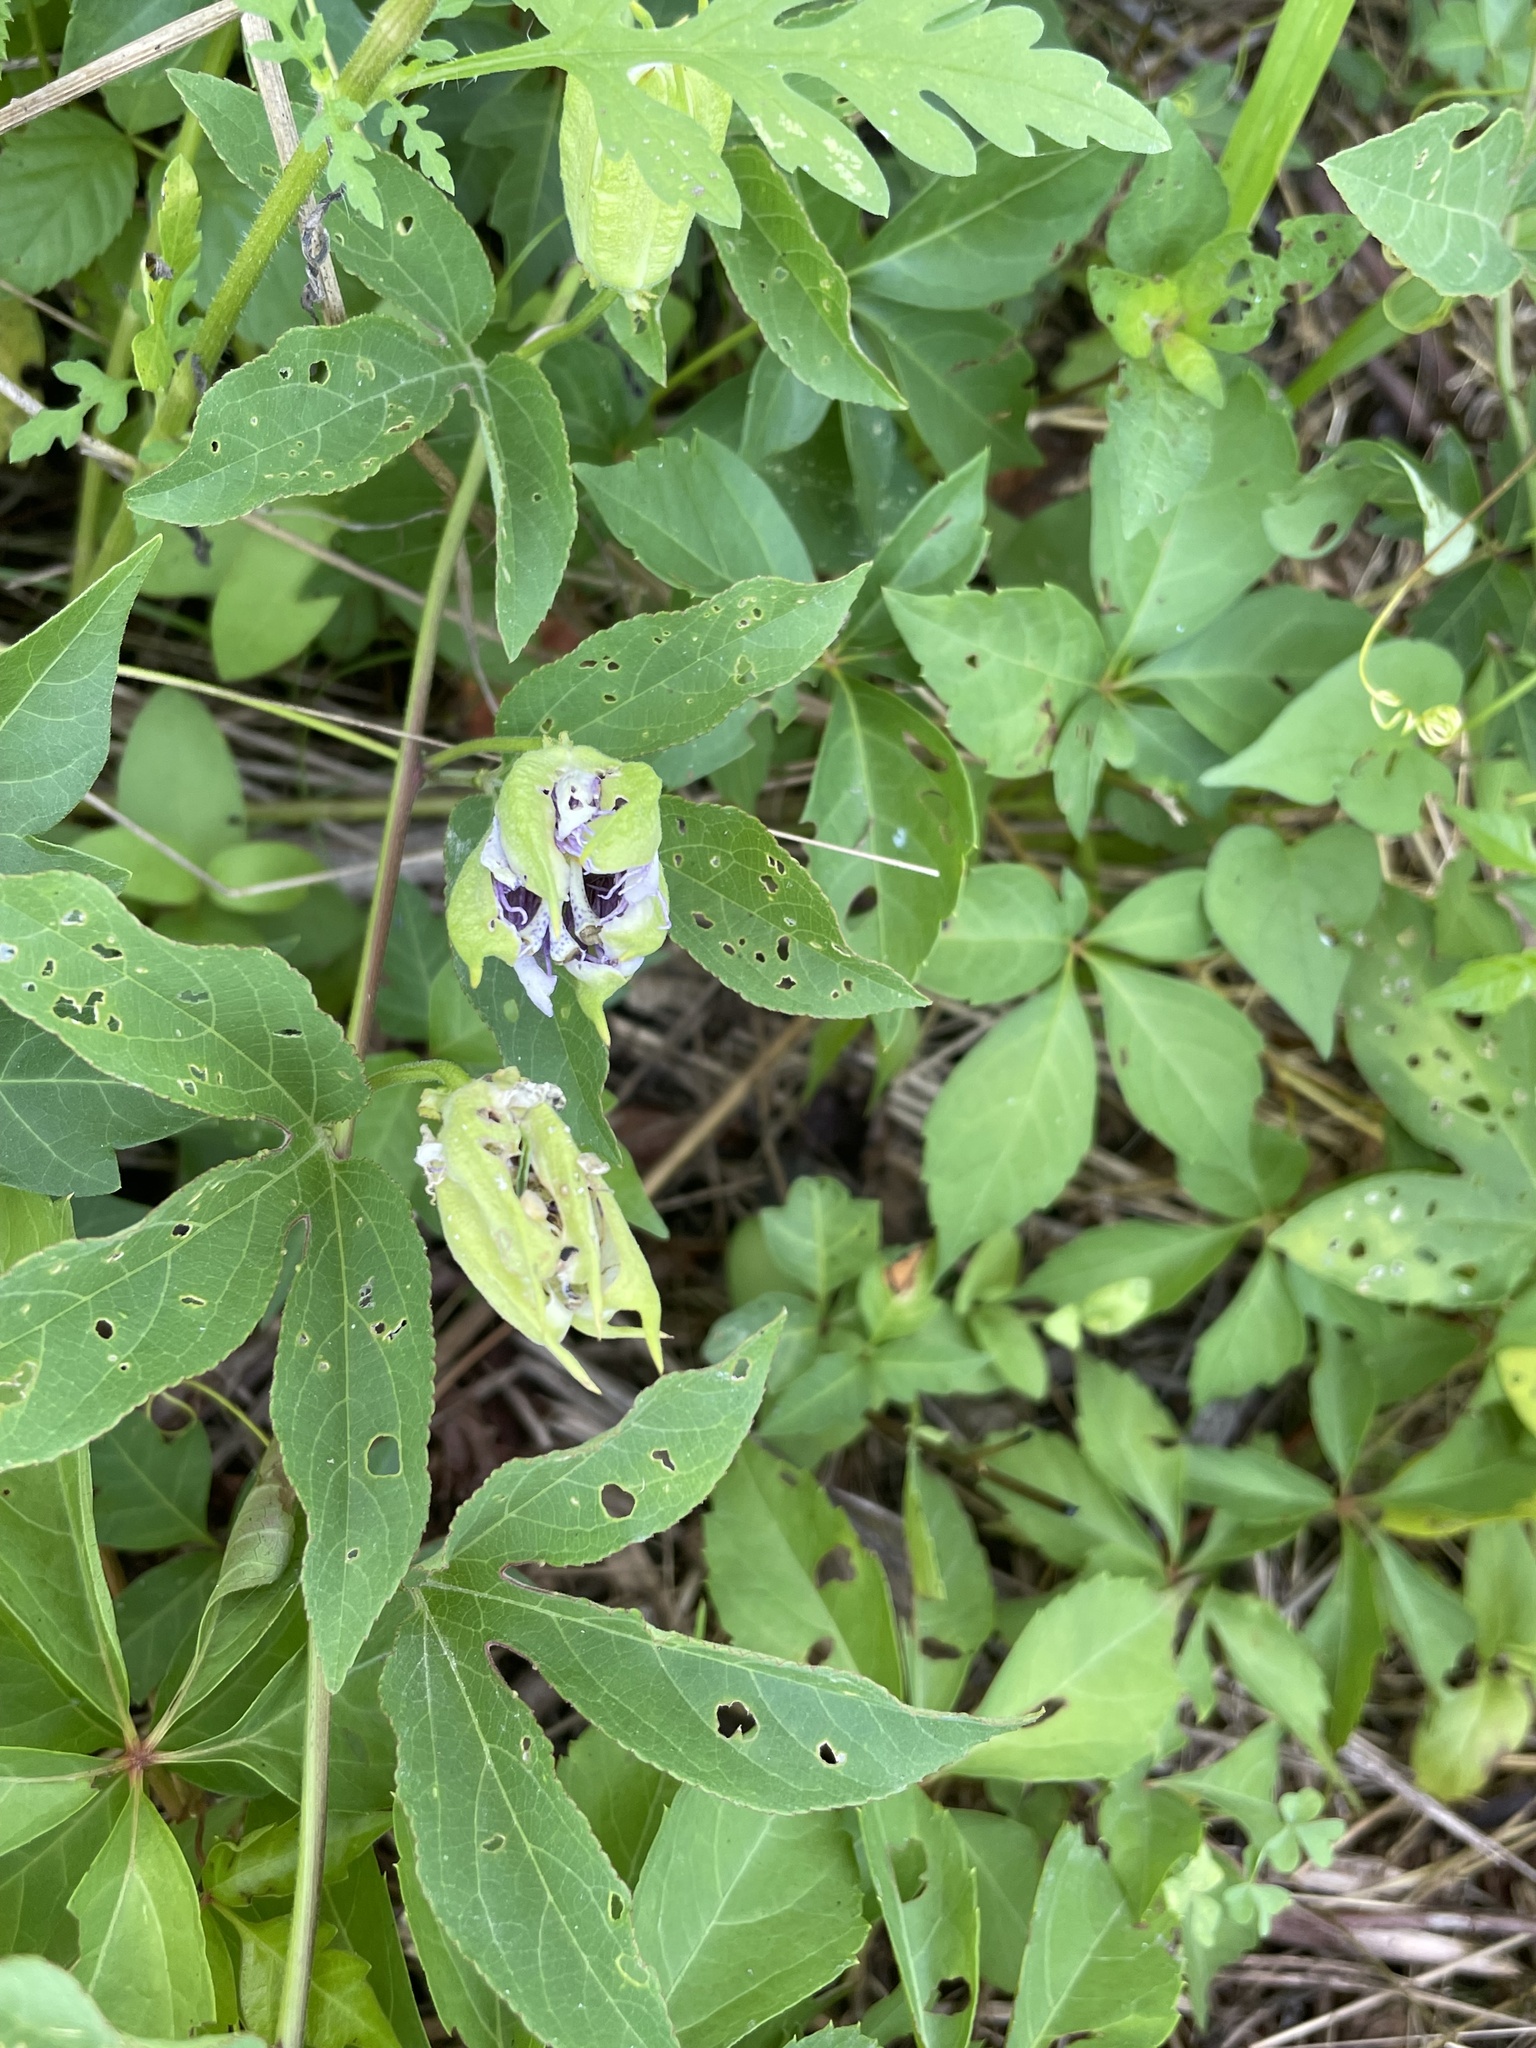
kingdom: Plantae
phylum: Tracheophyta
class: Magnoliopsida
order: Malpighiales
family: Passifloraceae
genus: Passiflora
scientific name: Passiflora incarnata
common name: Apricot-vine
